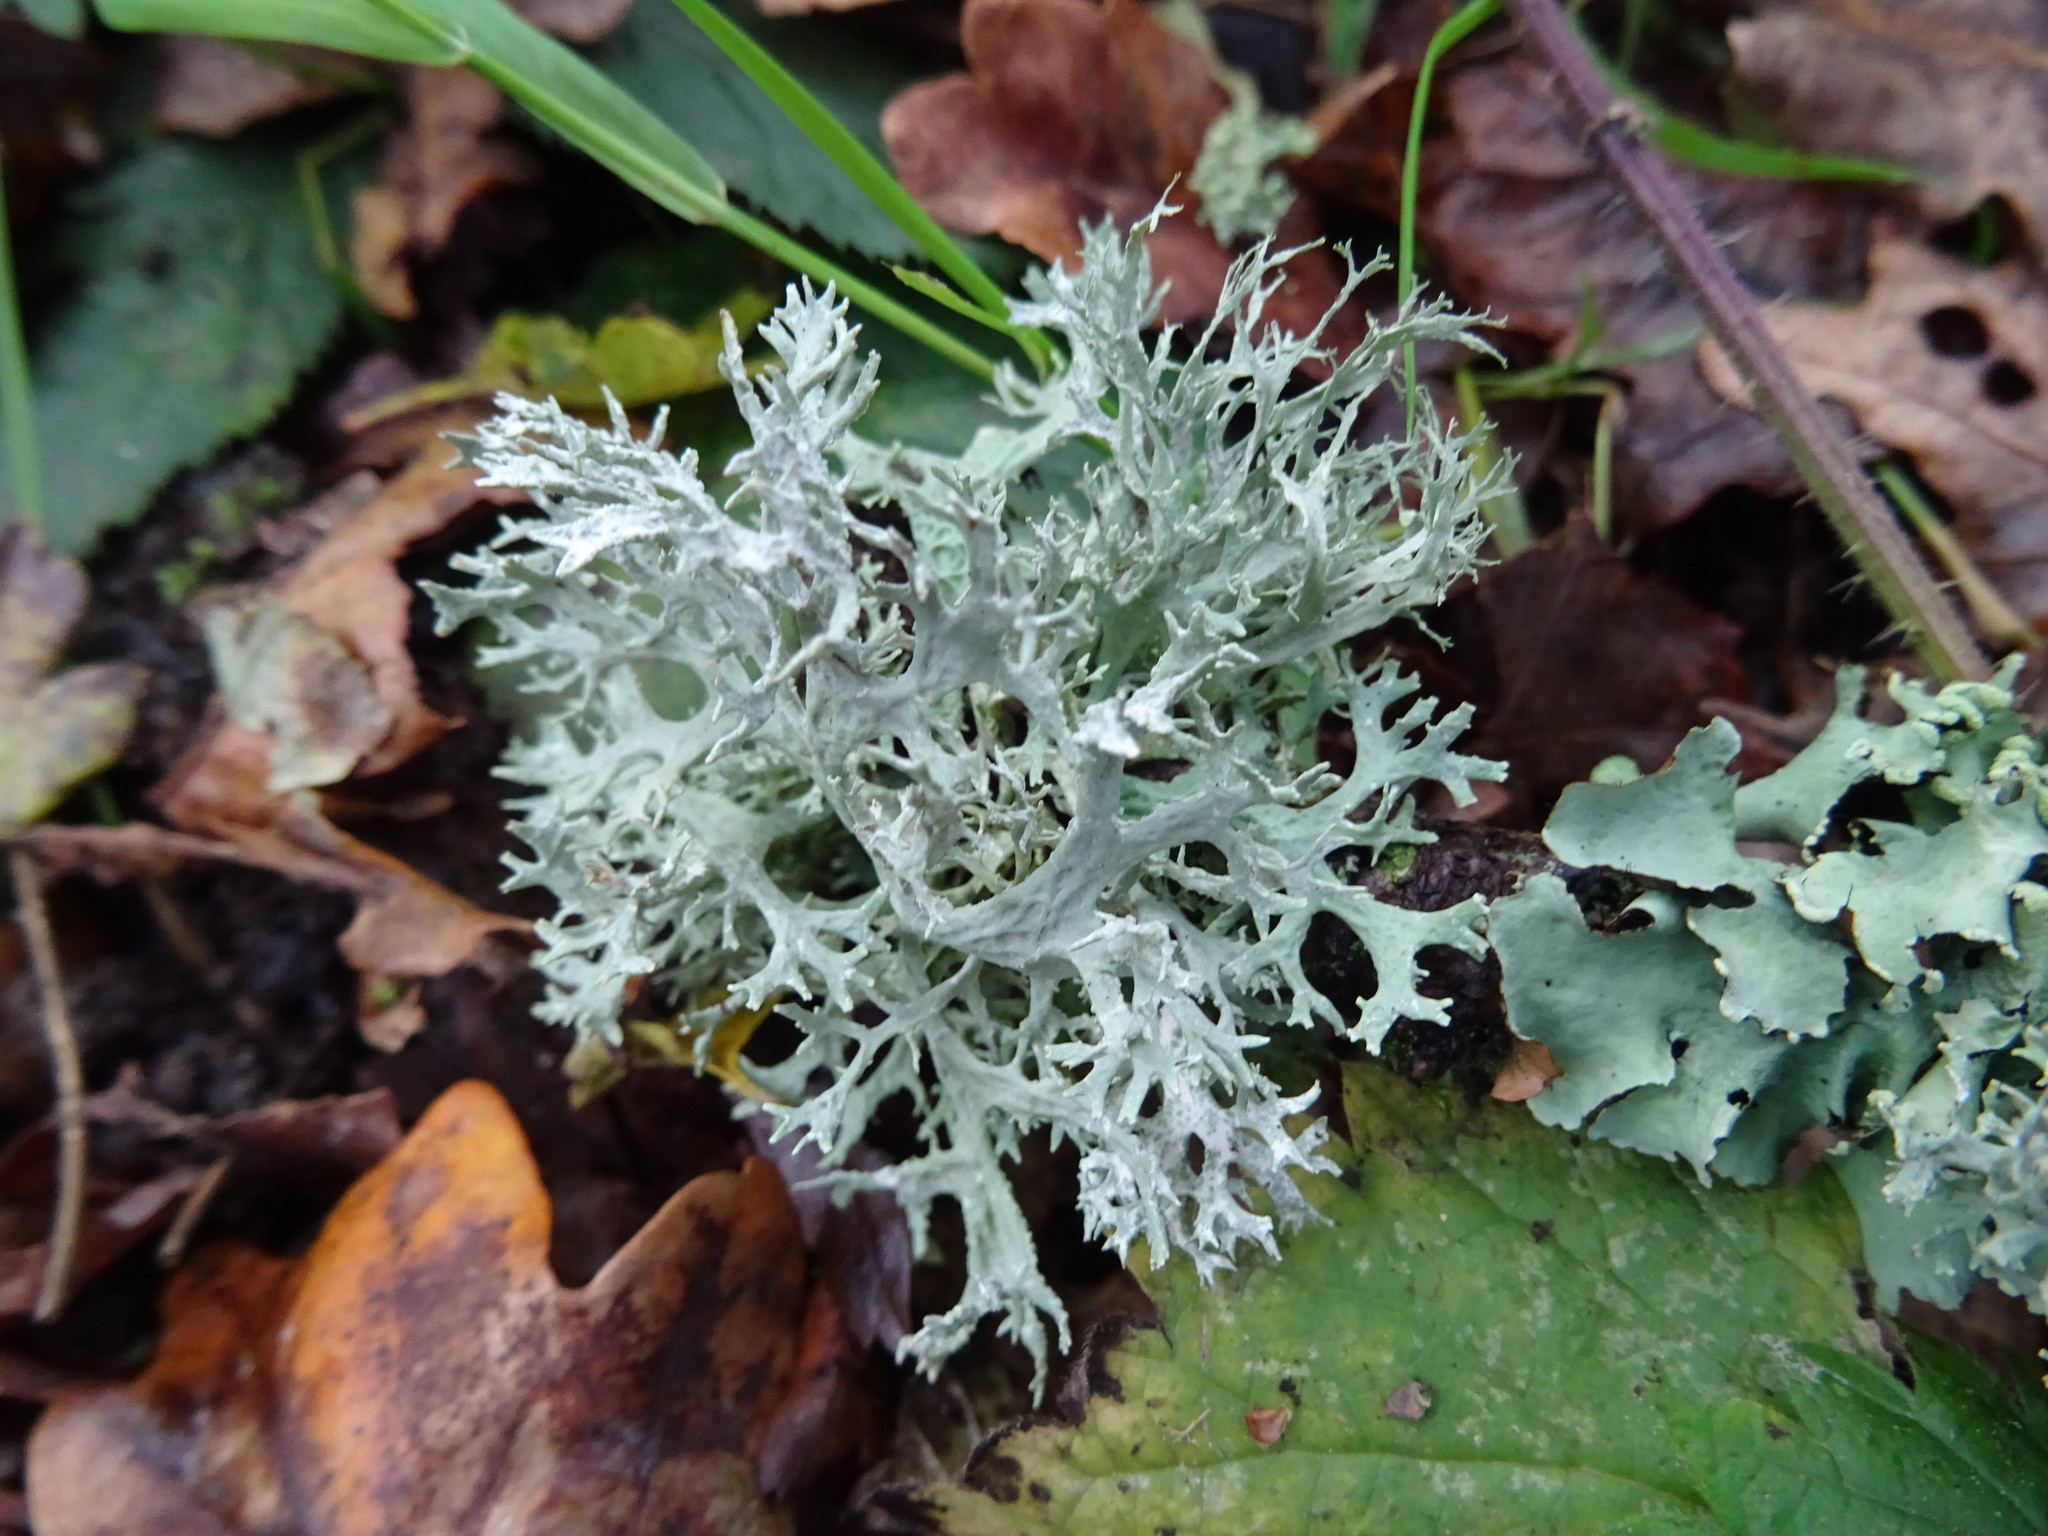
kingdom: Fungi
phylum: Ascomycota
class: Lecanoromycetes
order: Lecanorales
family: Parmeliaceae
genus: Evernia
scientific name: Evernia prunastri
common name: Oak moss
